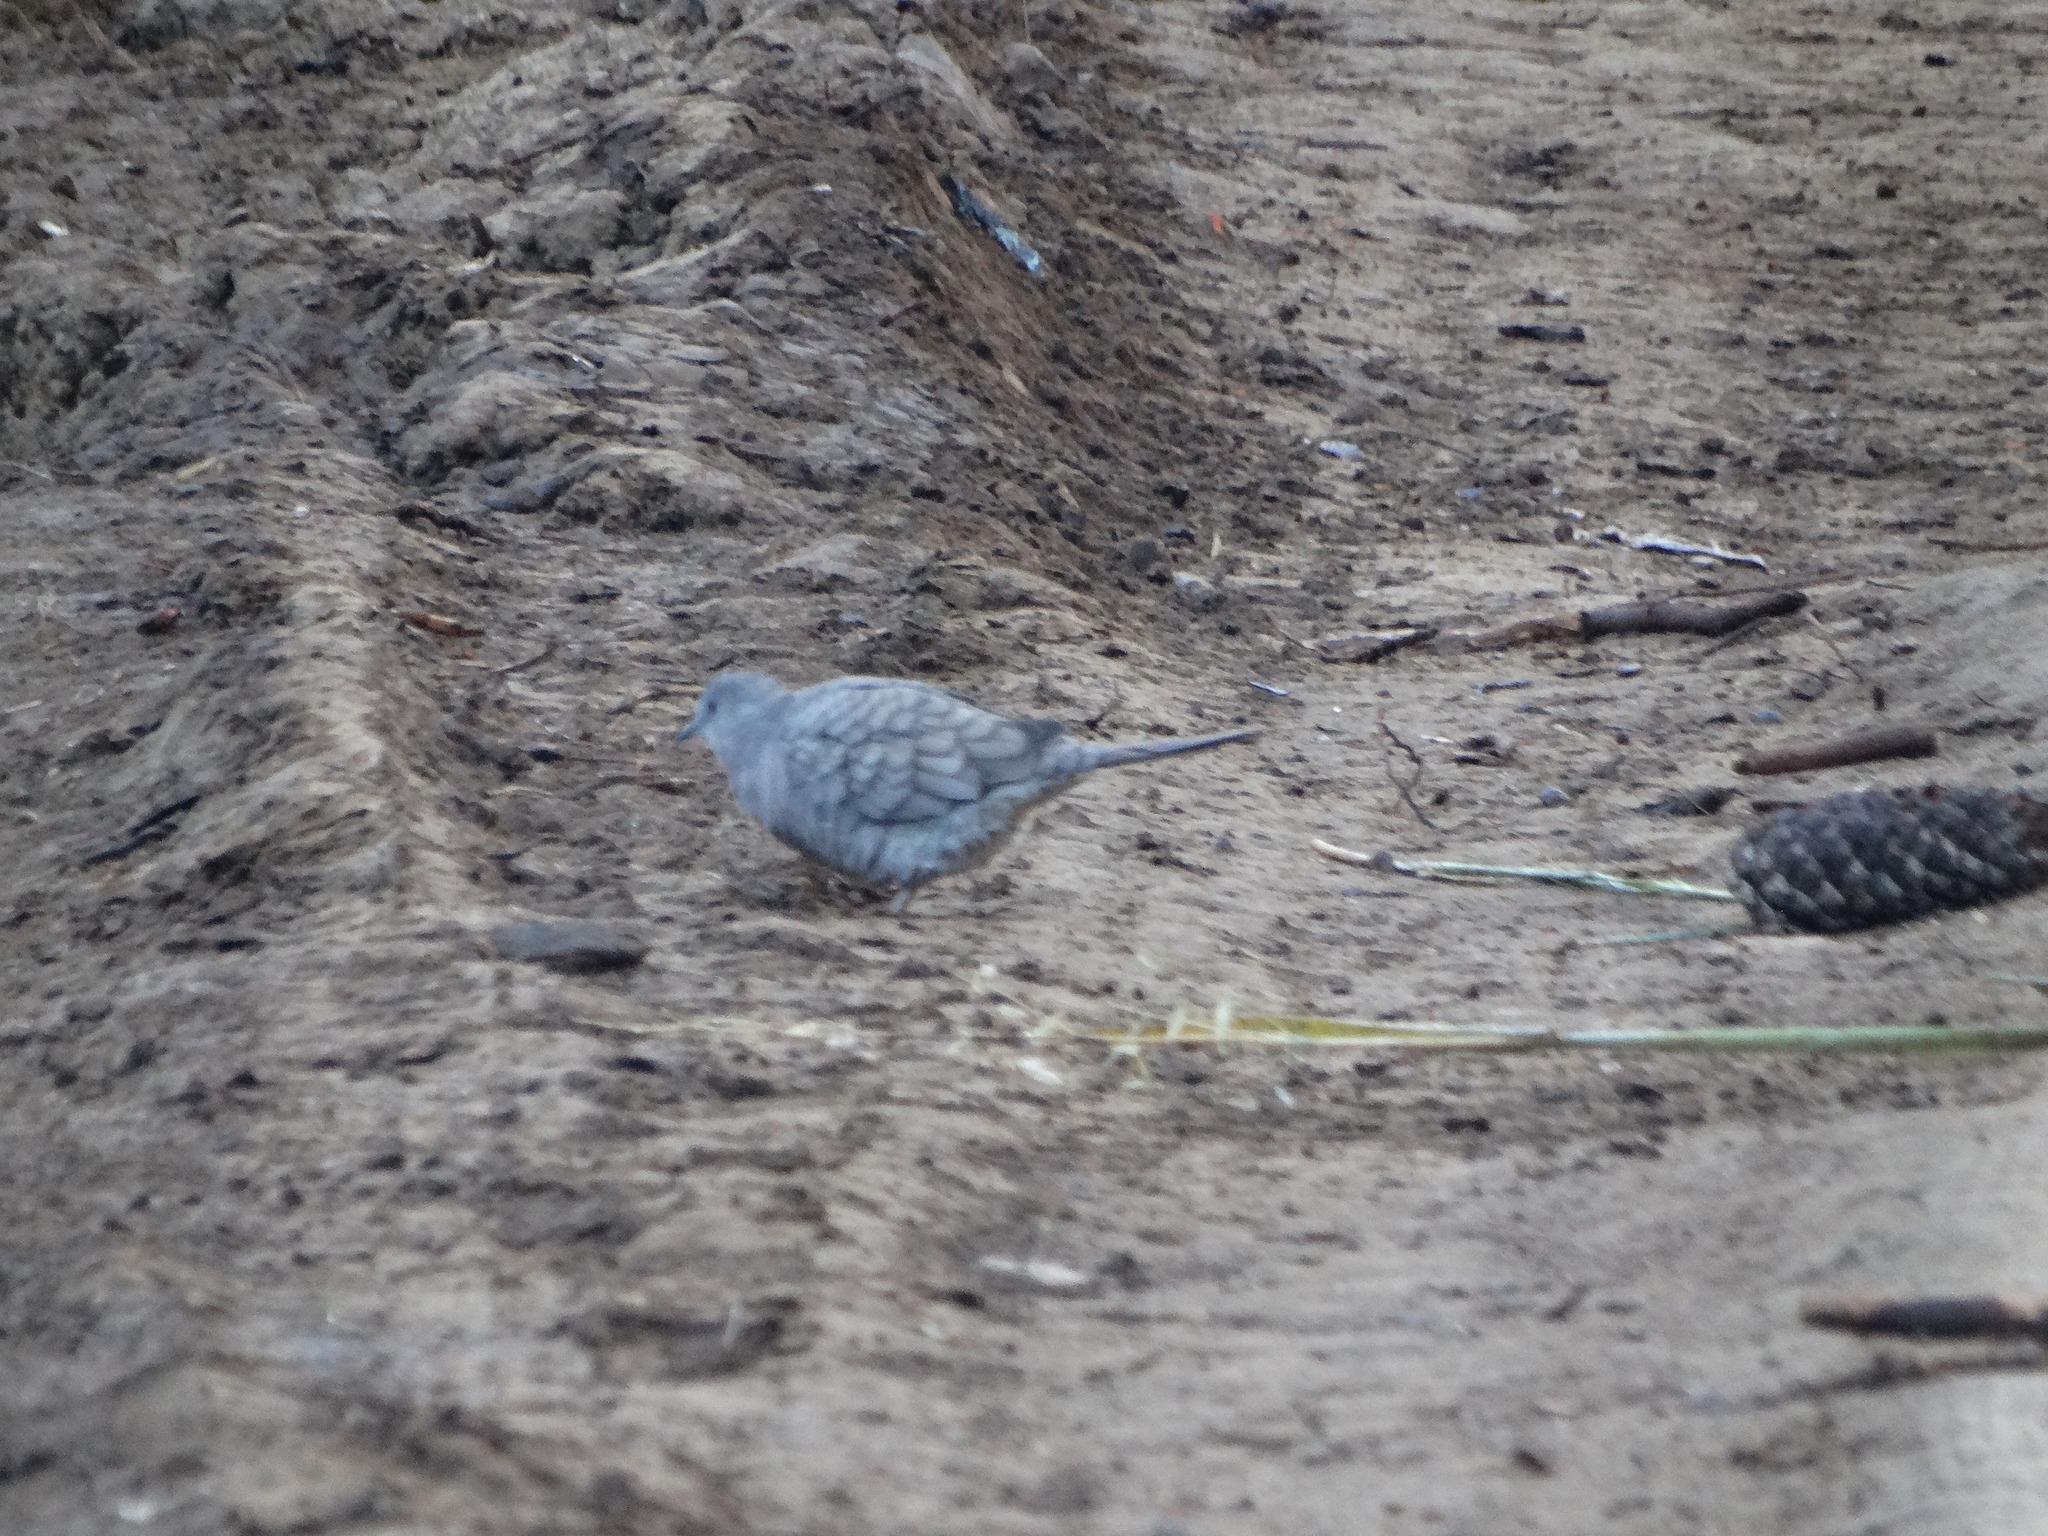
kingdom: Animalia
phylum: Chordata
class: Aves
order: Columbiformes
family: Columbidae
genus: Columbina
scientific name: Columbina inca
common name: Inca dove
